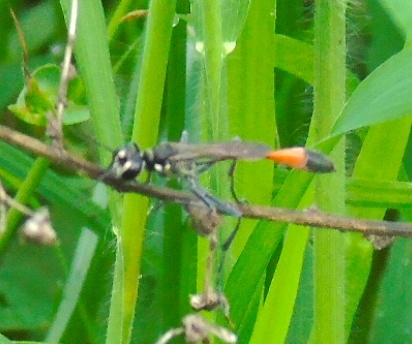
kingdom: Animalia
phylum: Arthropoda
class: Insecta
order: Hymenoptera
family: Sphecidae
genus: Ammophila
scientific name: Ammophila
